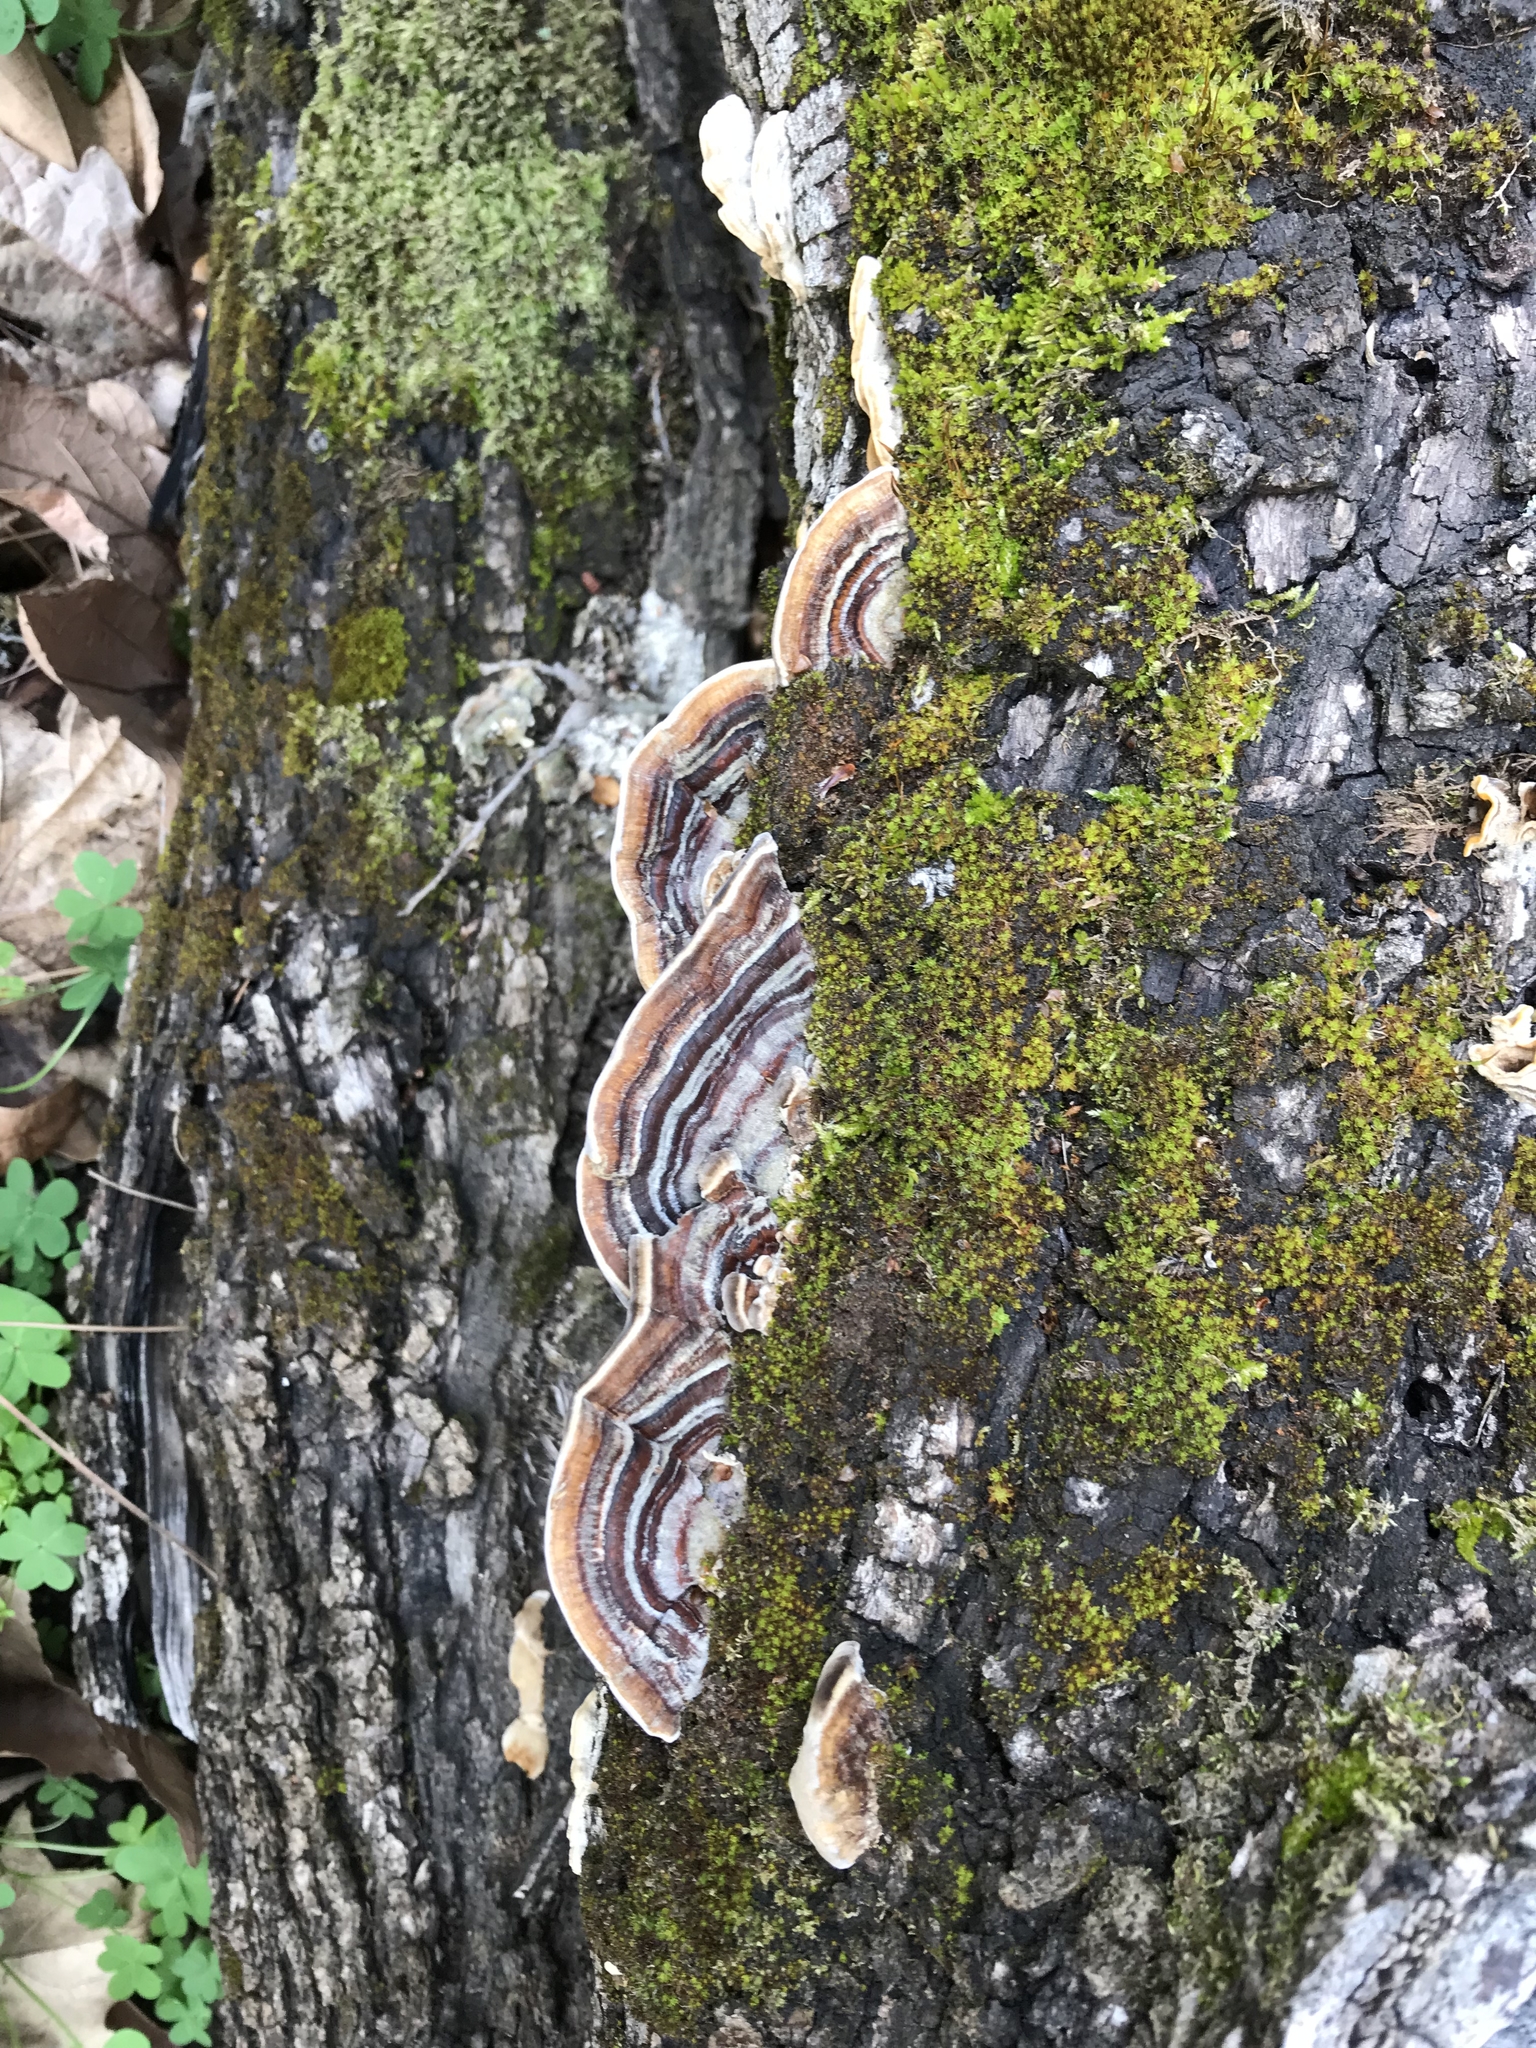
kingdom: Fungi
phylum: Basidiomycota
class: Agaricomycetes
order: Polyporales
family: Polyporaceae
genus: Trametes
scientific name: Trametes versicolor
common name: Turkeytail
